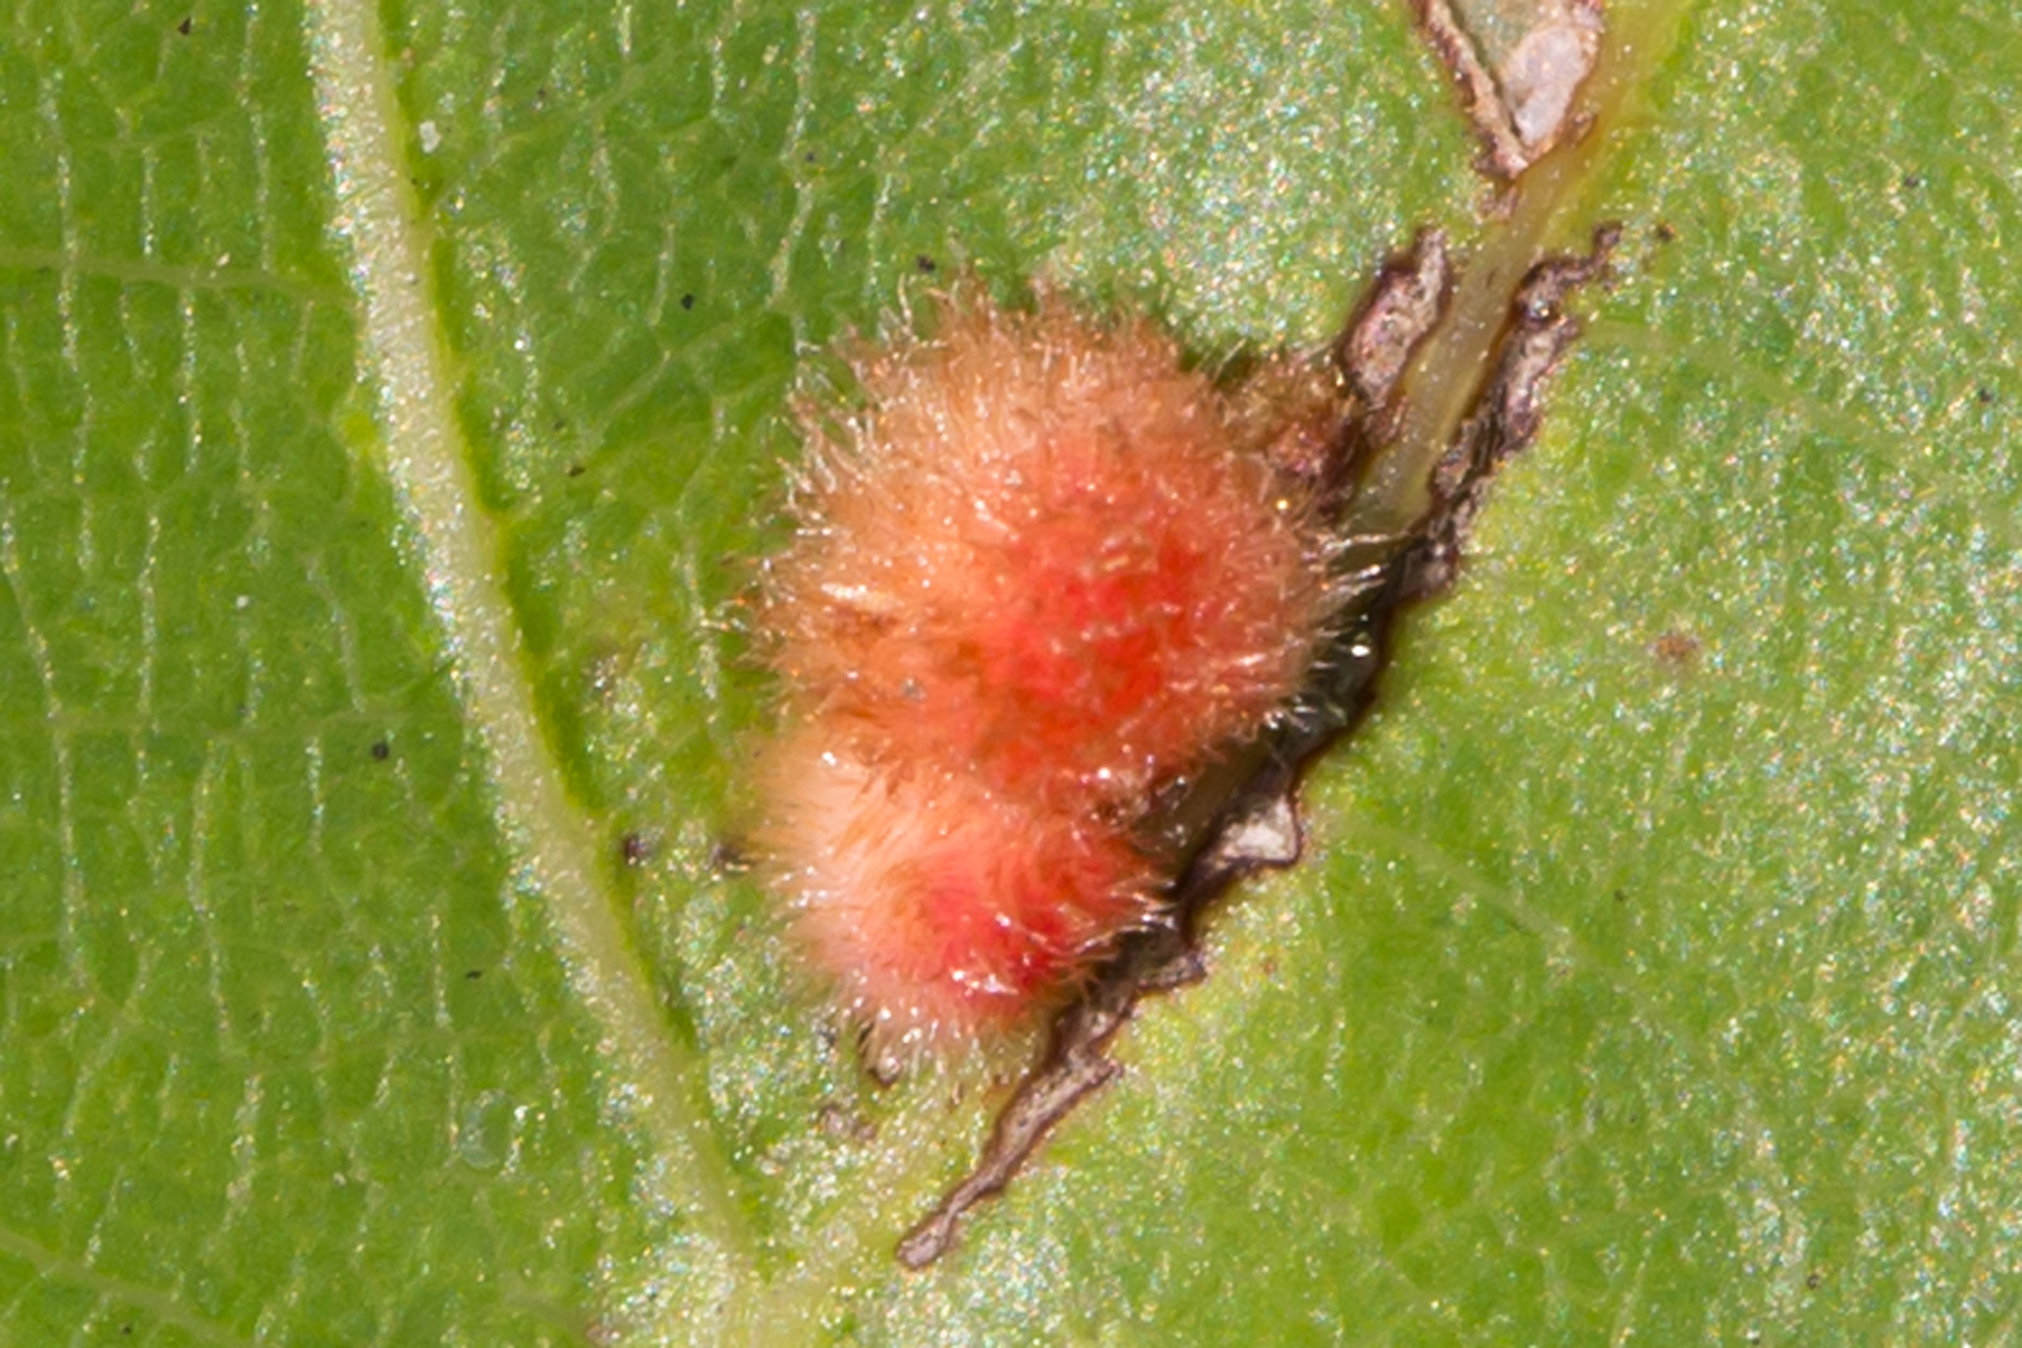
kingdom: Animalia
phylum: Arthropoda
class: Insecta
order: Hymenoptera
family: Cynipidae
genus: Callirhytis
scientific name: Callirhytis
